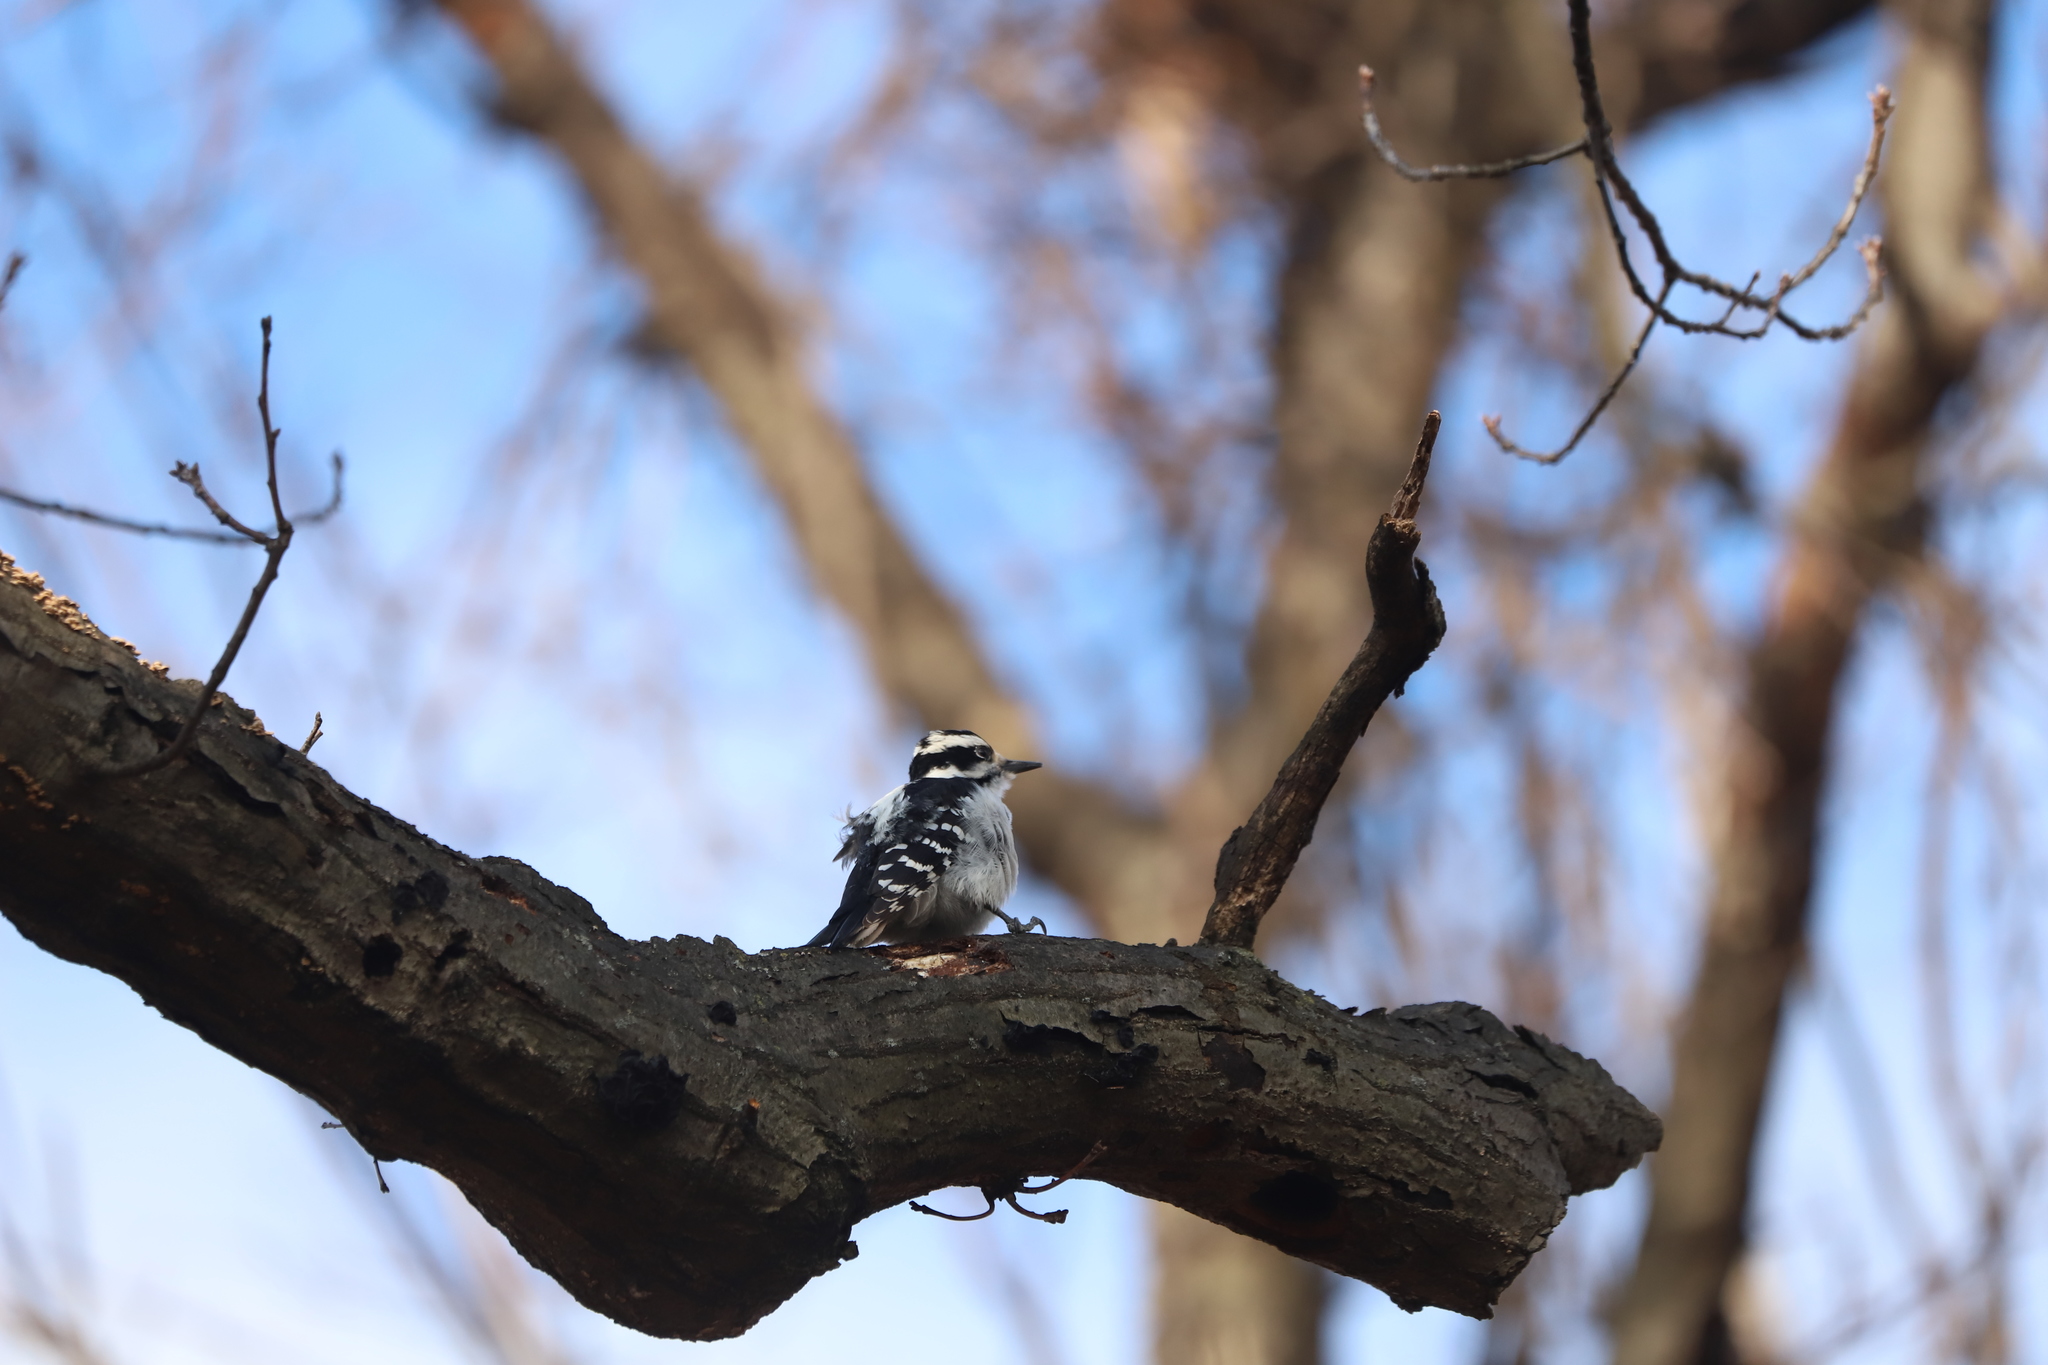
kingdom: Animalia
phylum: Chordata
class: Aves
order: Piciformes
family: Picidae
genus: Leuconotopicus
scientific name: Leuconotopicus villosus
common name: Hairy woodpecker
